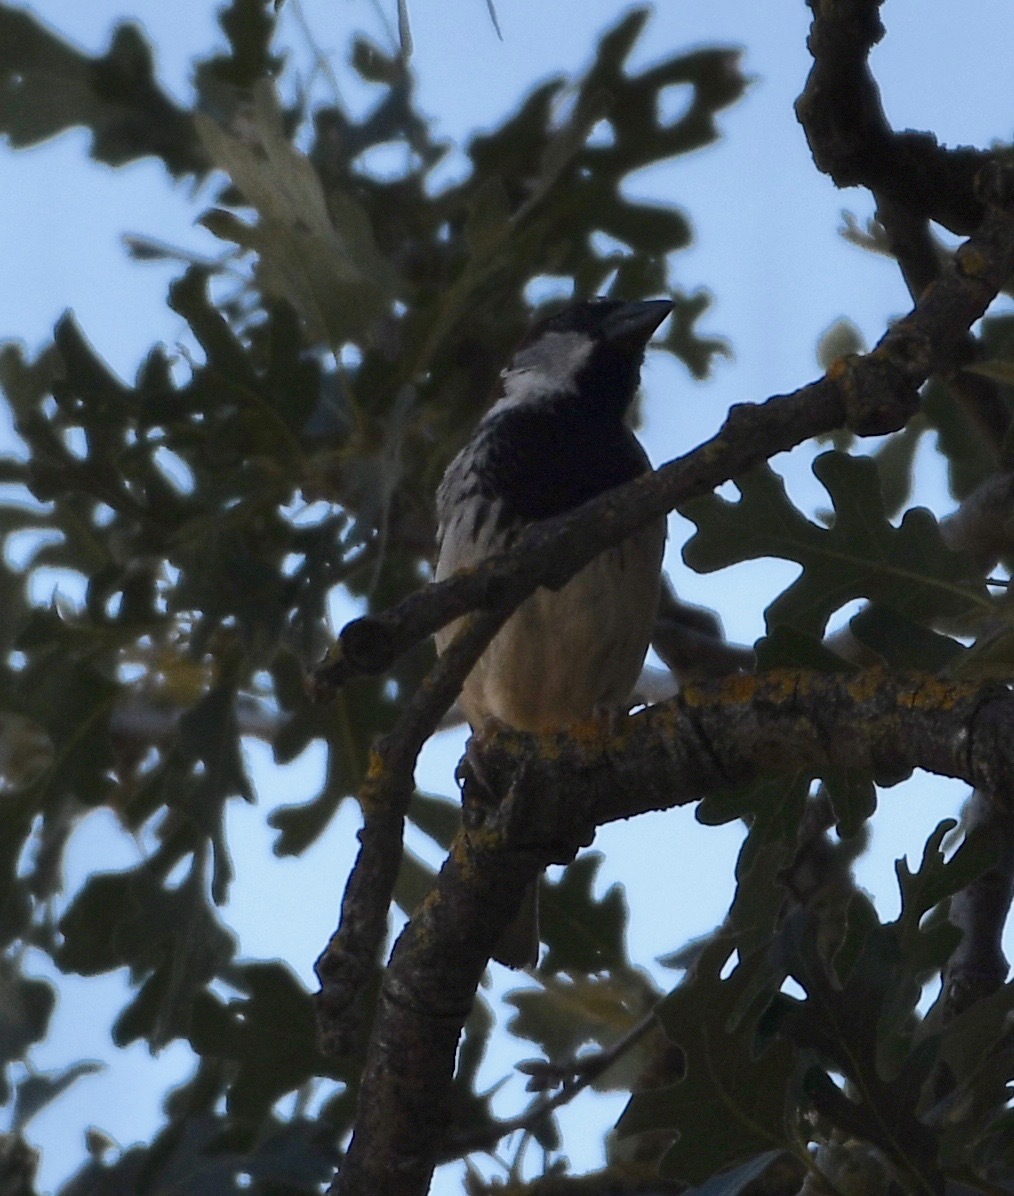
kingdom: Animalia
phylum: Chordata
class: Aves
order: Passeriformes
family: Passeridae
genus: Passer
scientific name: Passer domesticus
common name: House sparrow
